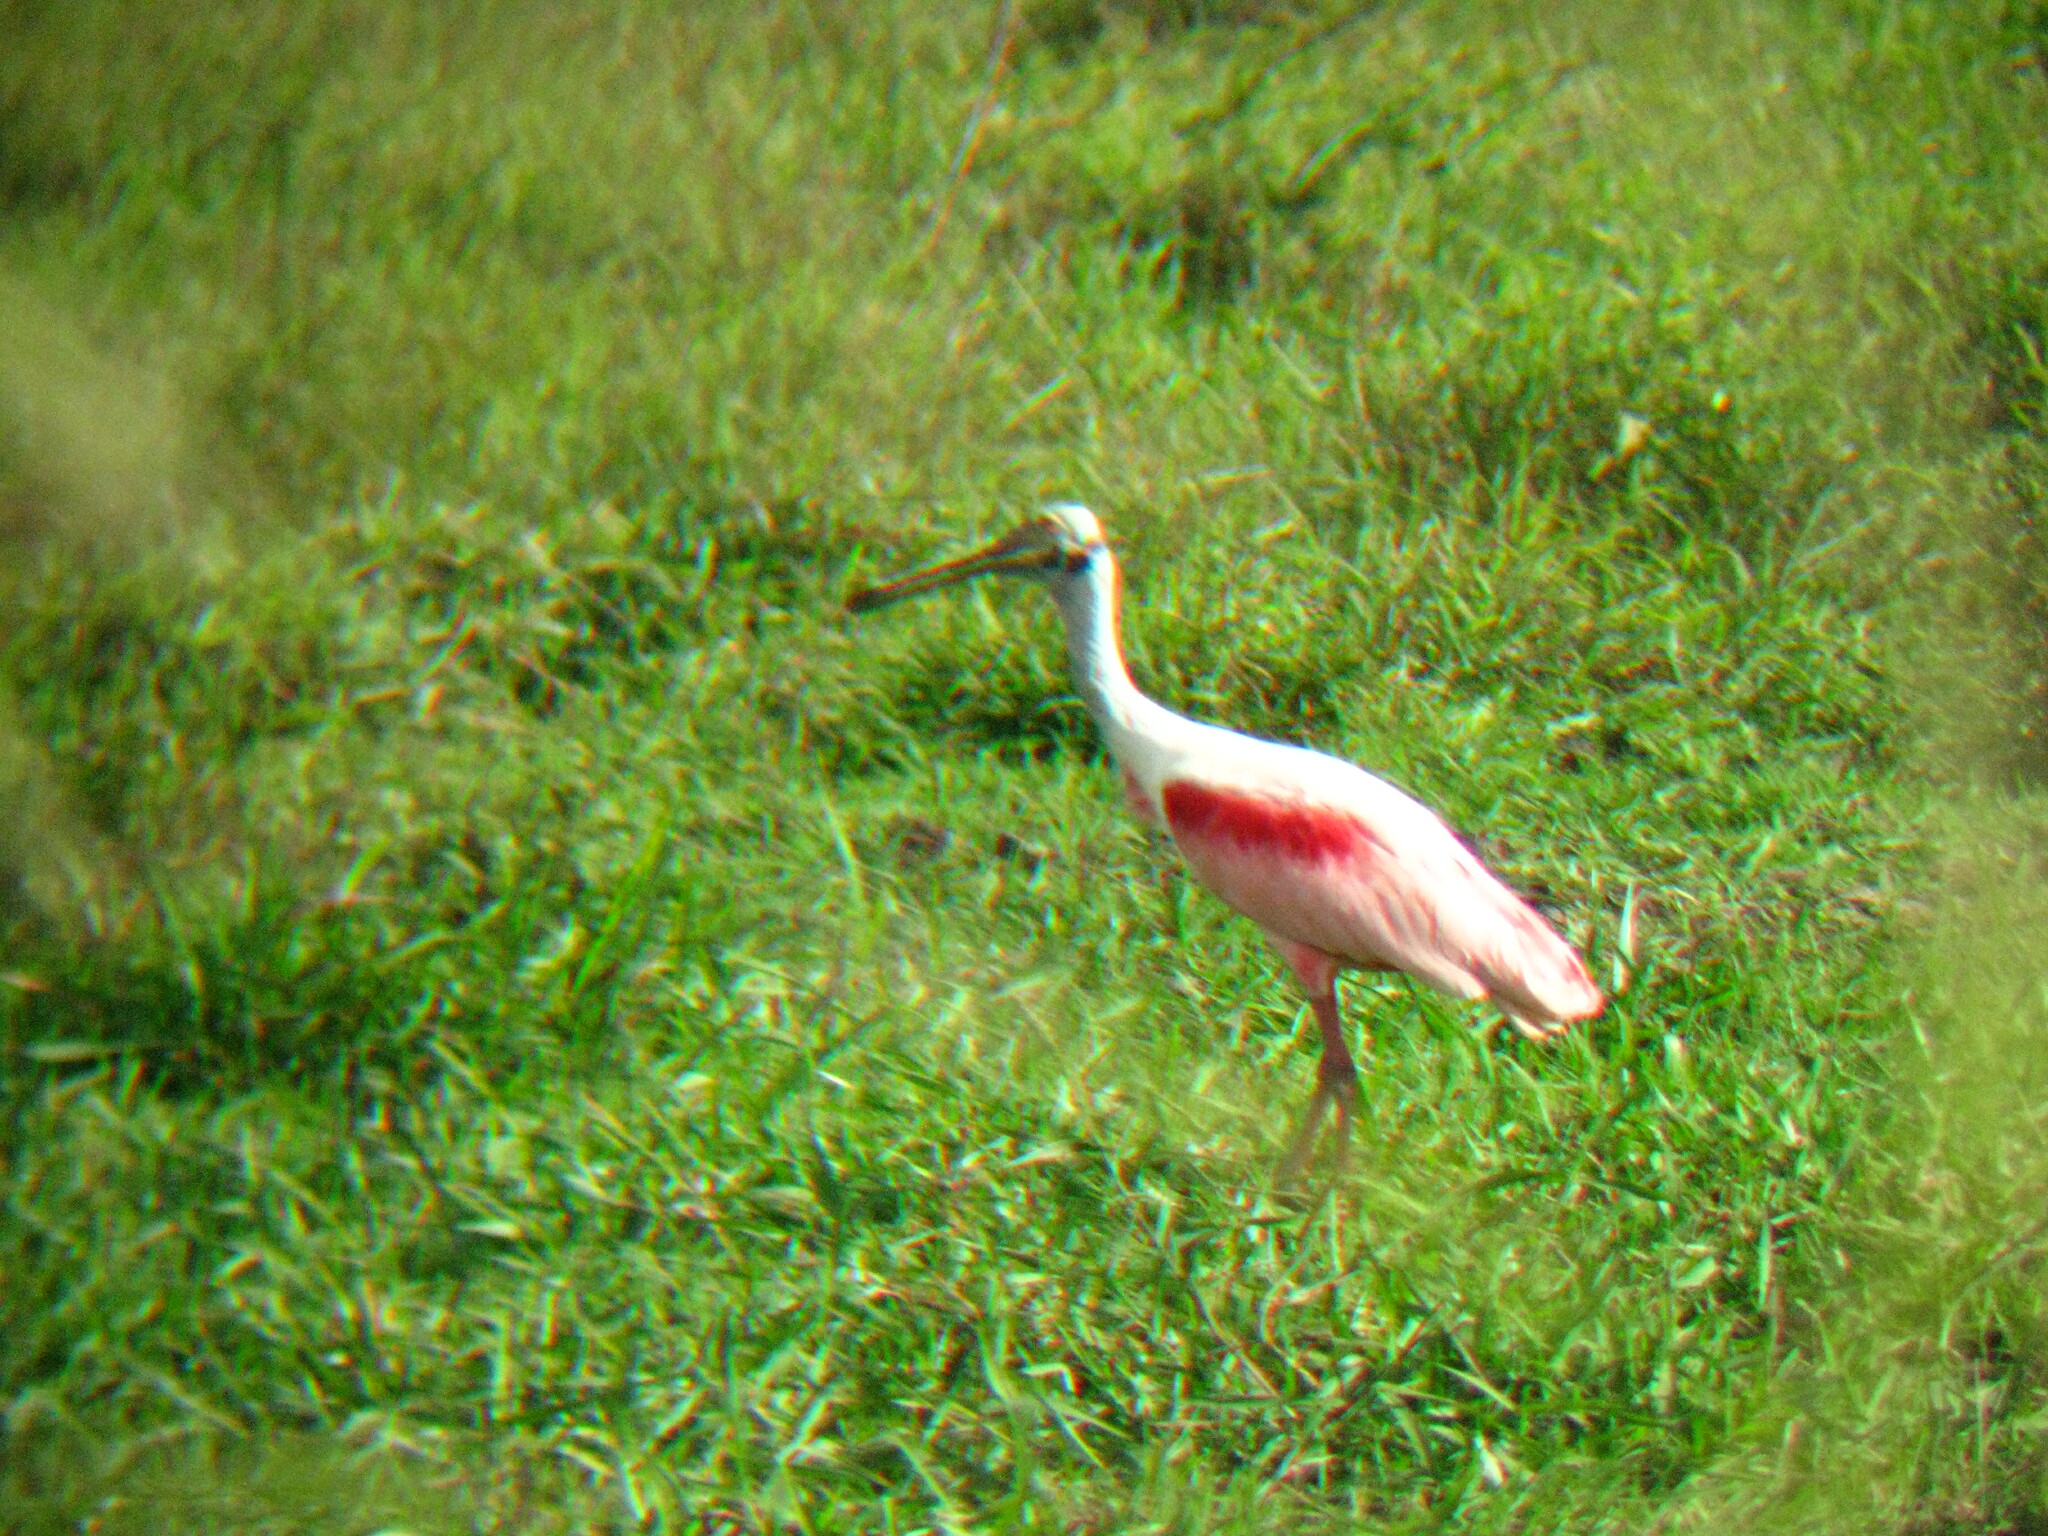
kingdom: Animalia
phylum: Chordata
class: Aves
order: Pelecaniformes
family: Threskiornithidae
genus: Platalea
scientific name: Platalea ajaja
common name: Roseate spoonbill
